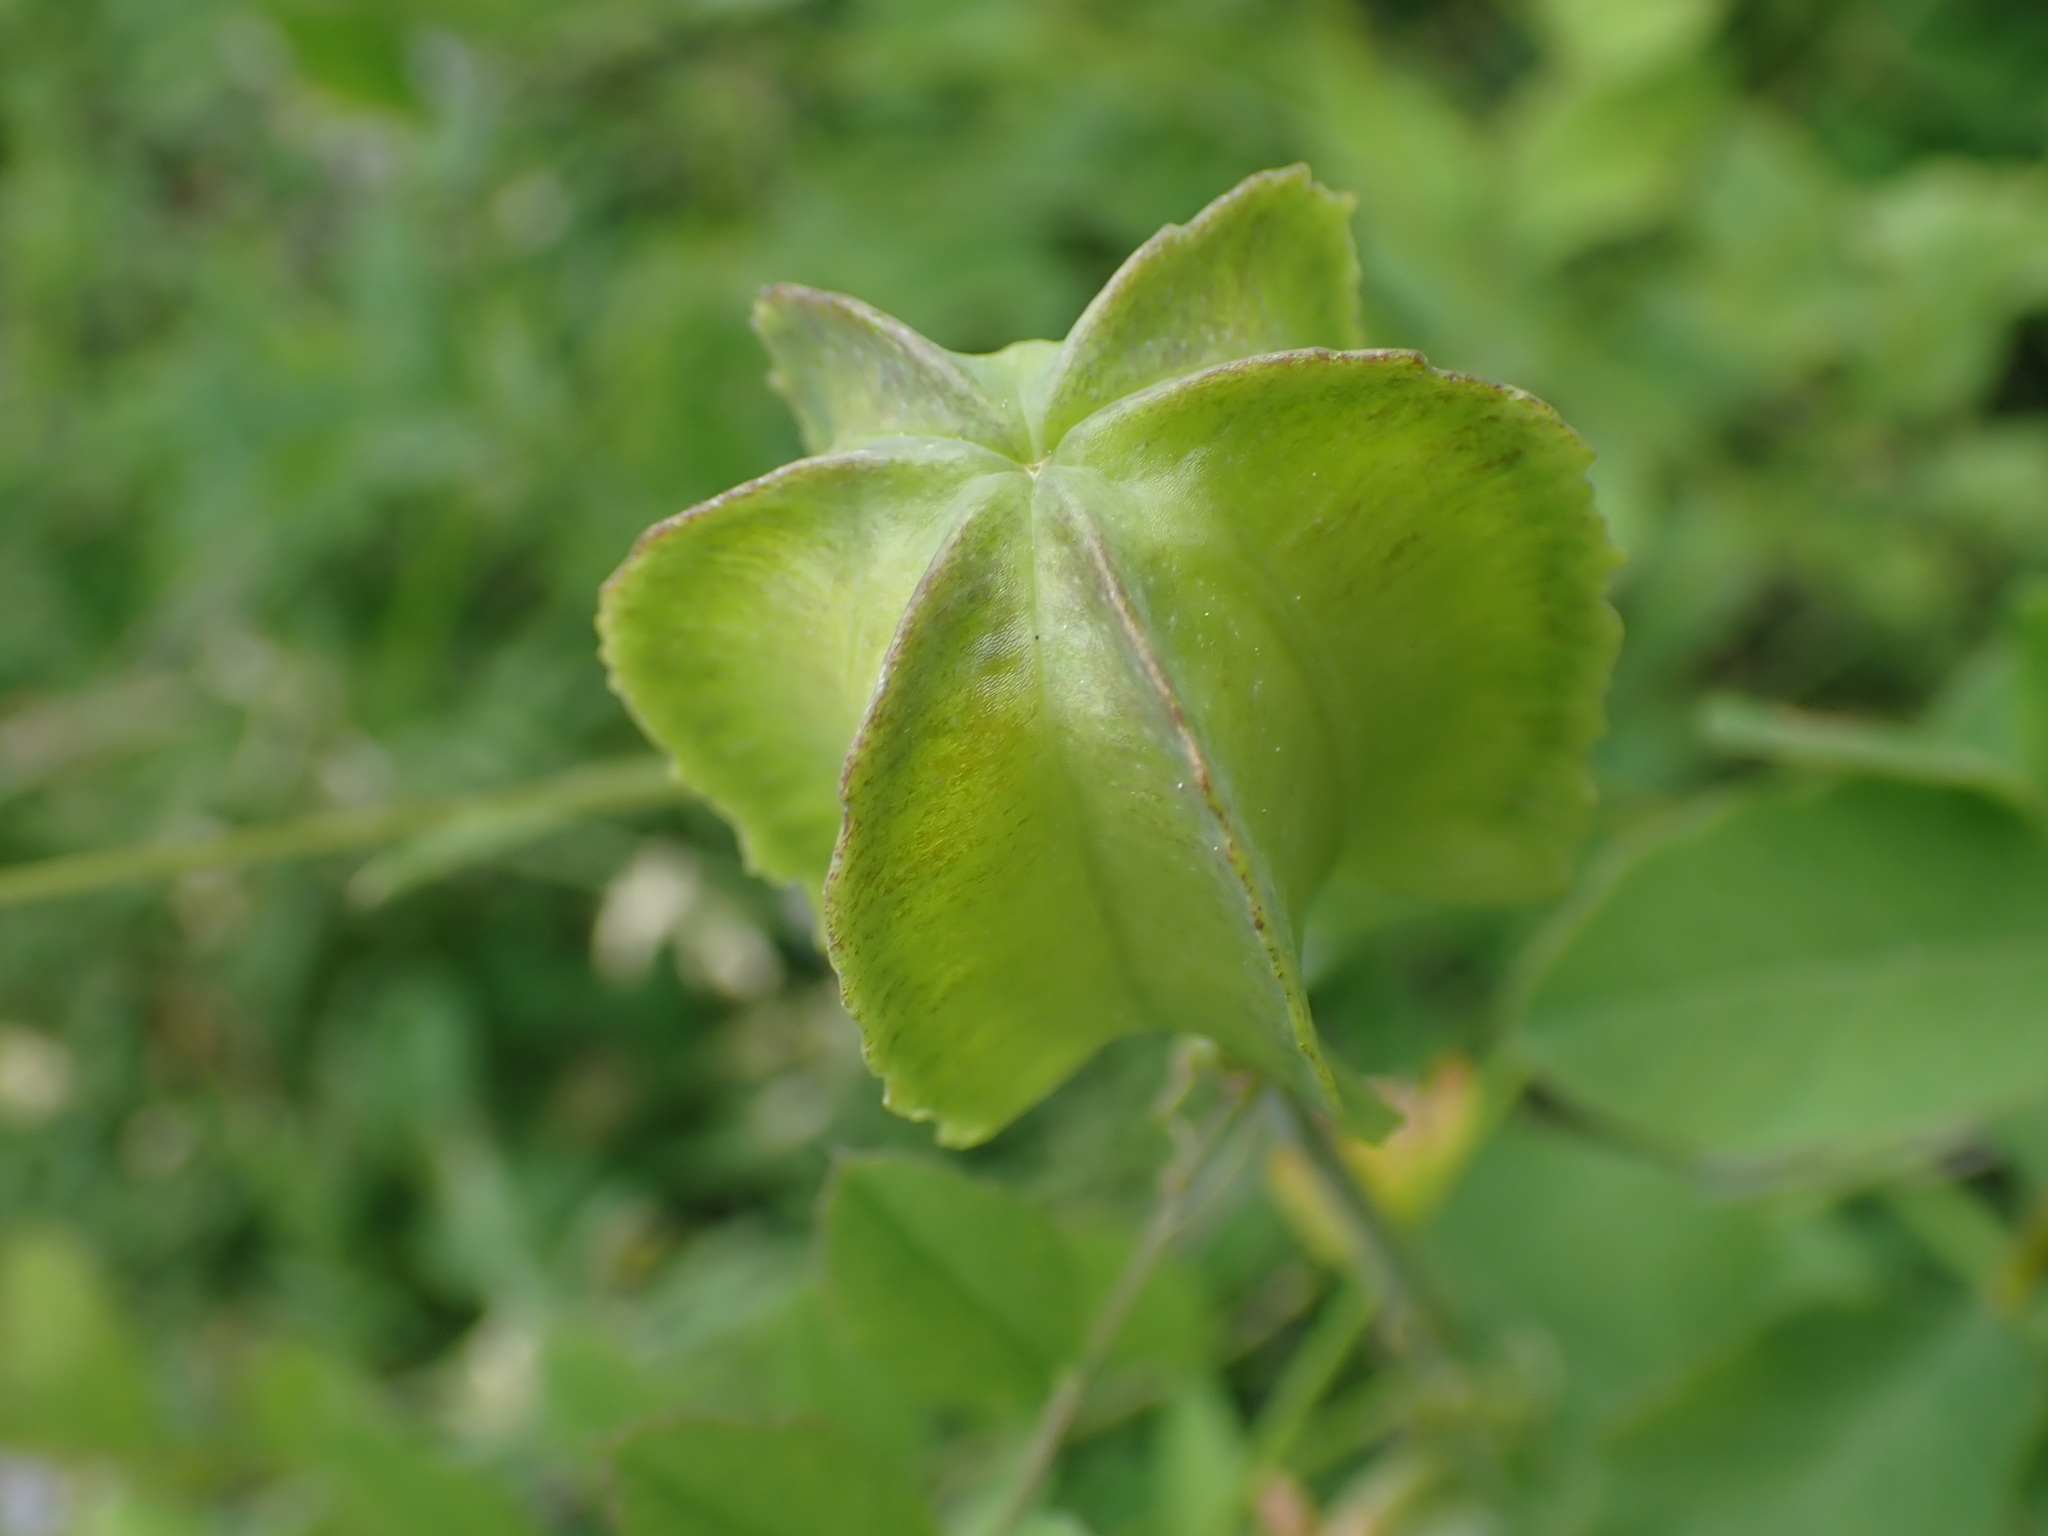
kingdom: Plantae
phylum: Tracheophyta
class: Liliopsida
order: Liliales
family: Liliaceae
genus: Fritillaria
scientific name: Fritillaria affinis
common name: Ojai fritillary
